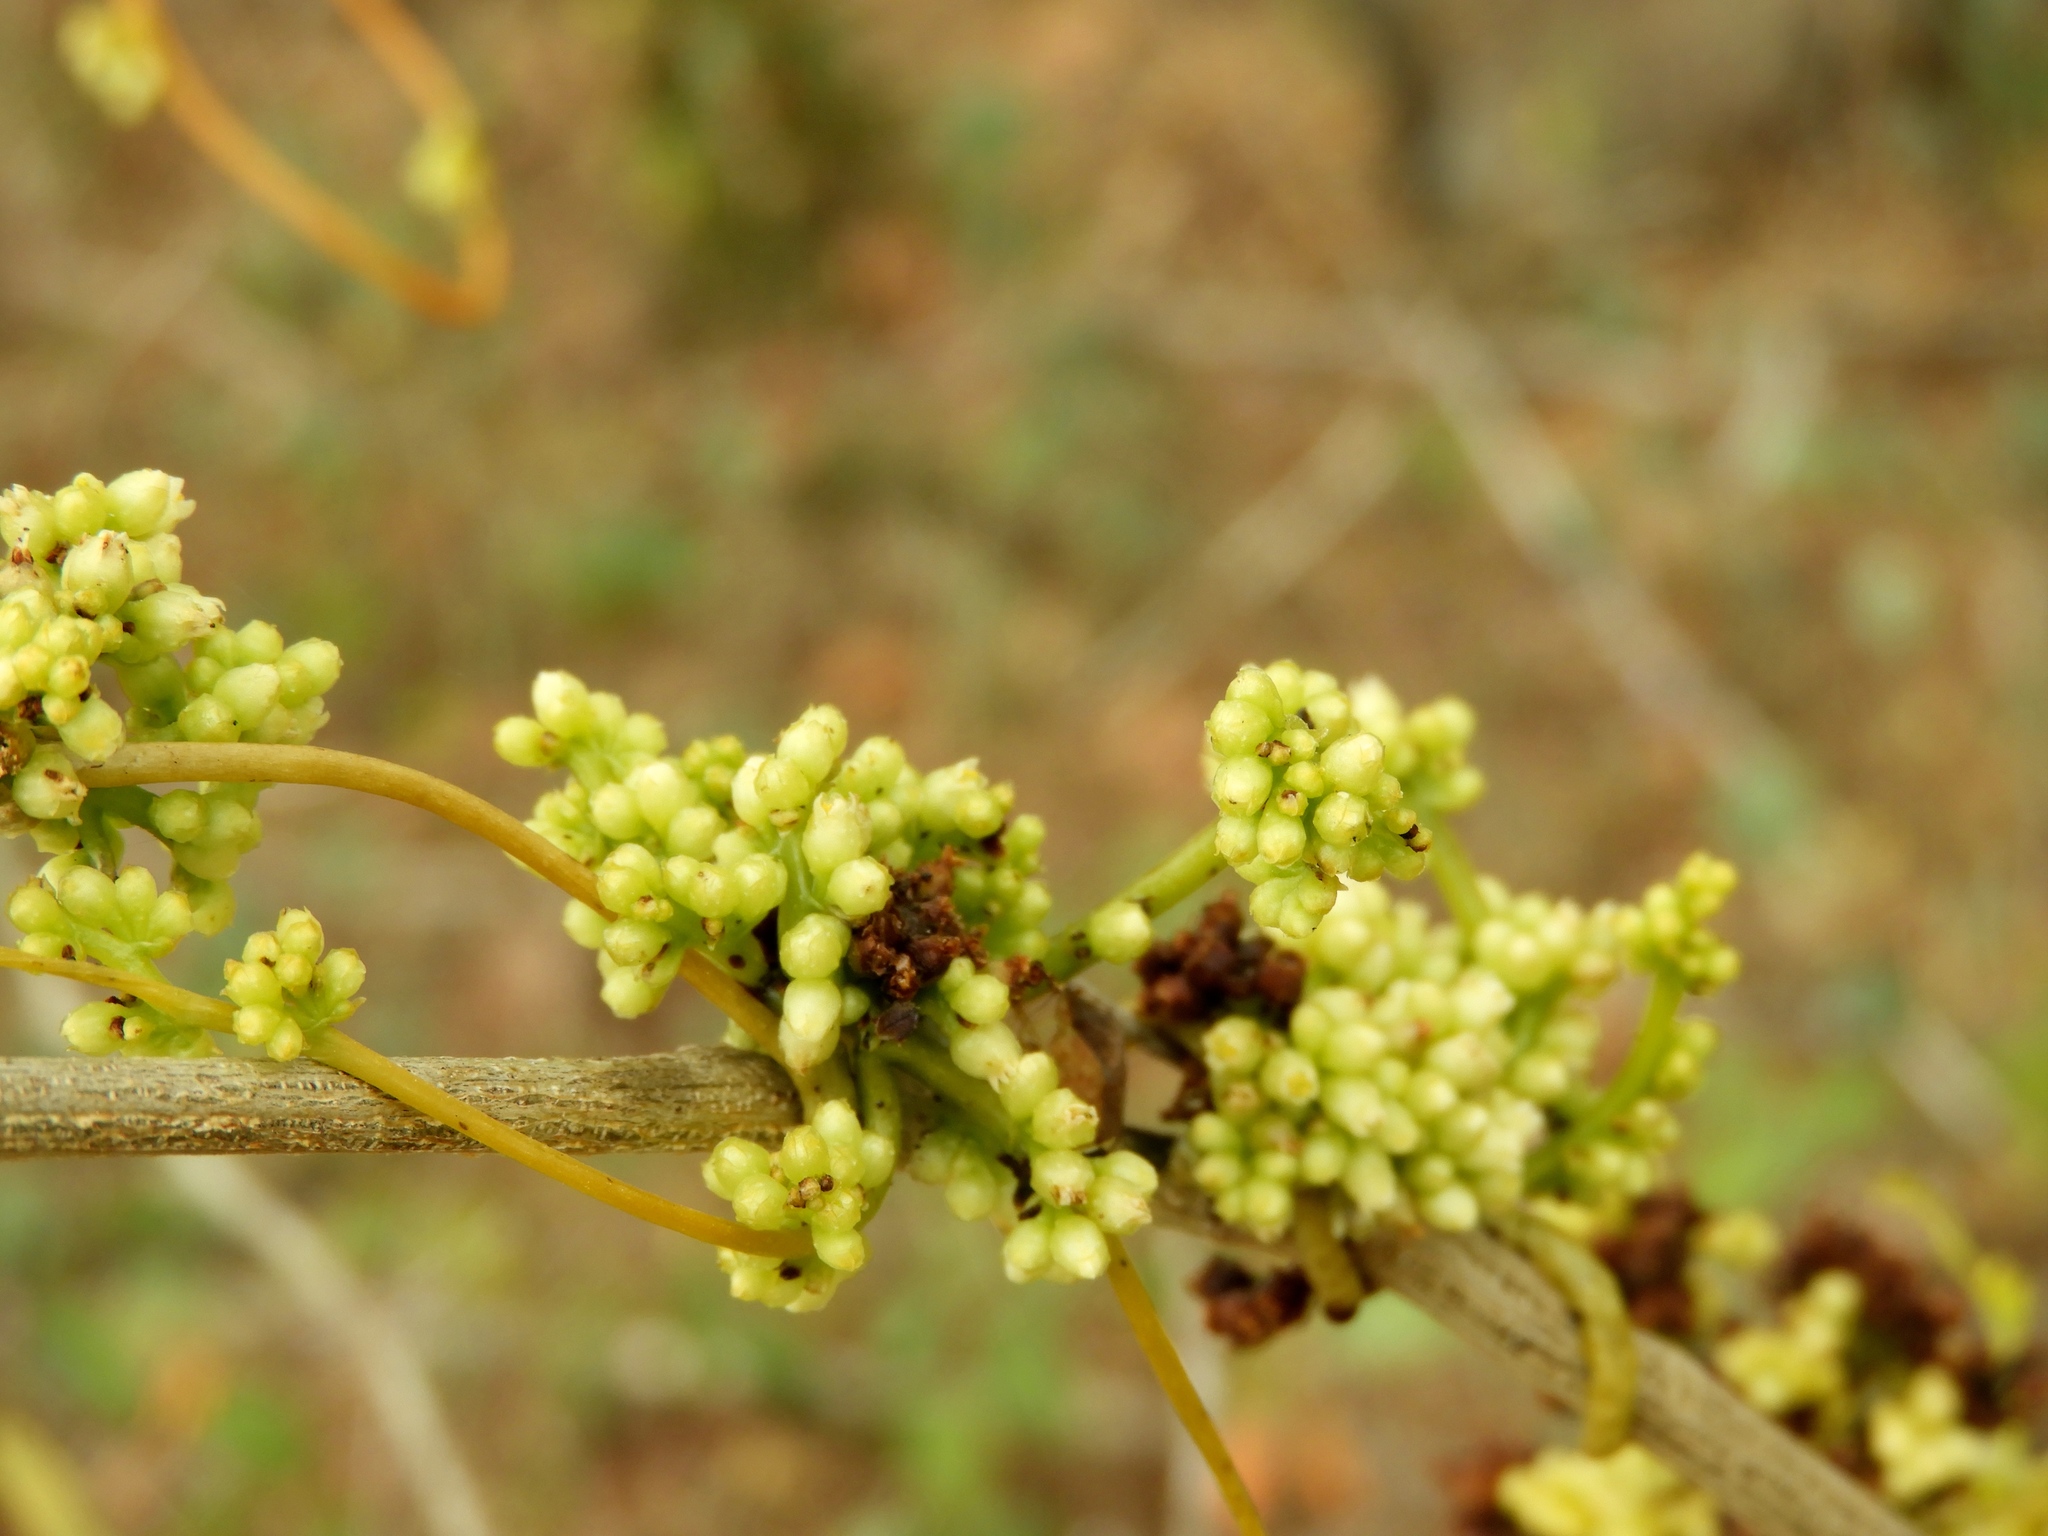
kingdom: Plantae
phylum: Tracheophyta
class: Magnoliopsida
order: Solanales
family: Convolvulaceae
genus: Cuscuta
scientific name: Cuscuta
